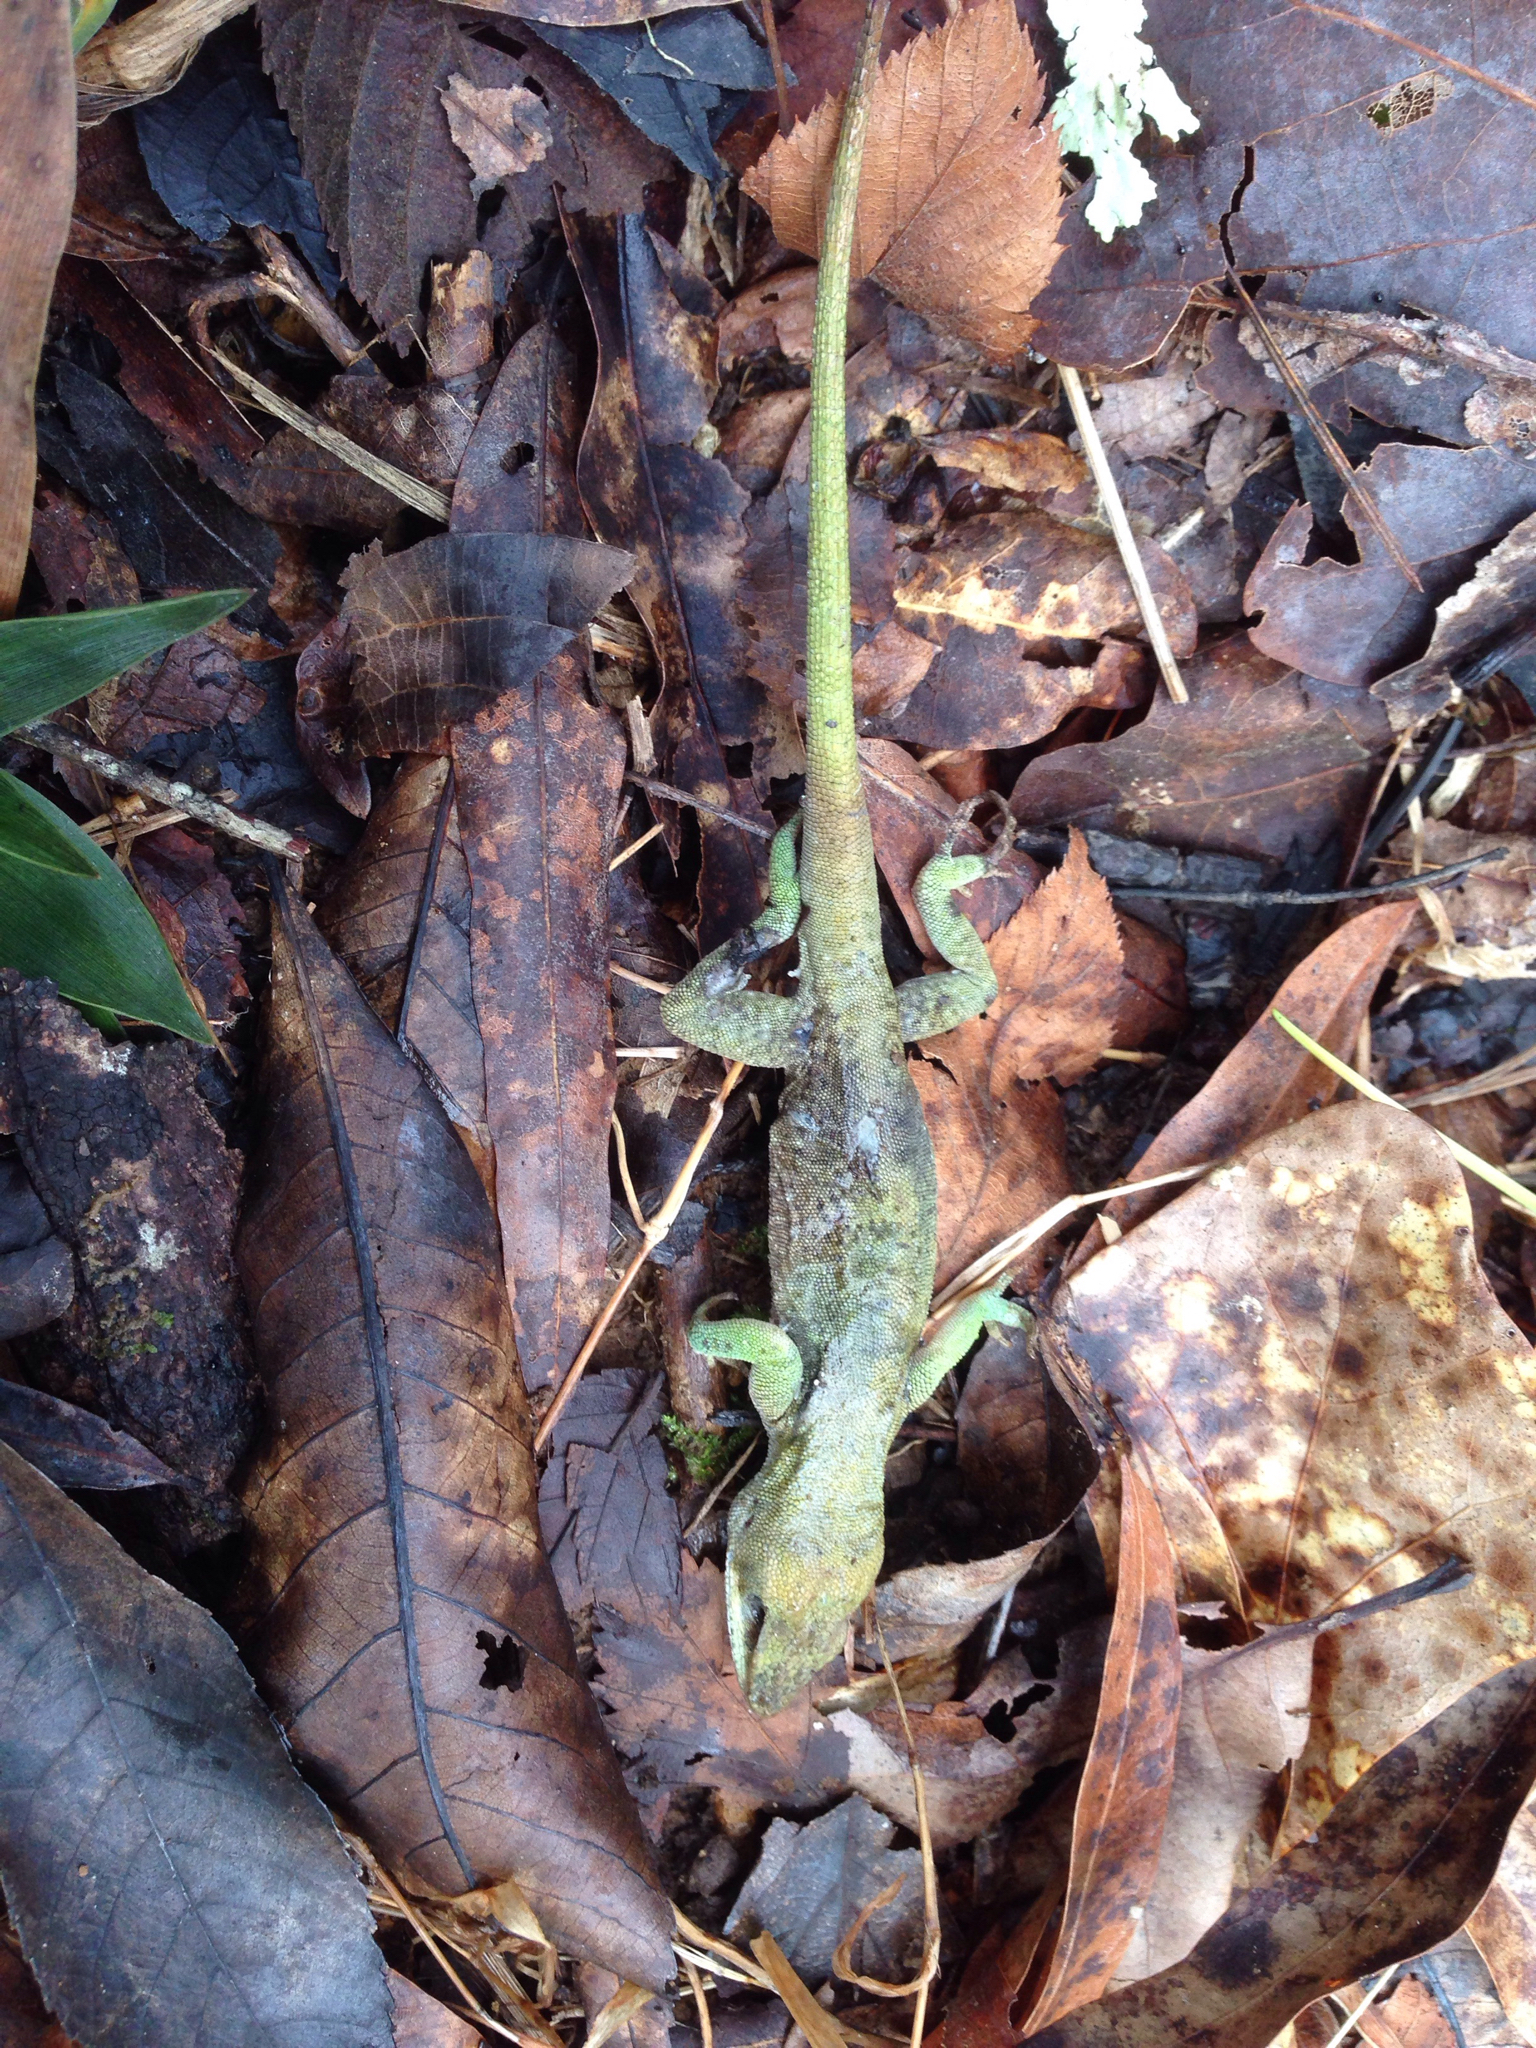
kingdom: Animalia
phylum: Chordata
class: Squamata
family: Dactyloidae
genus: Anolis
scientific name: Anolis carolinensis
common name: Green anole
